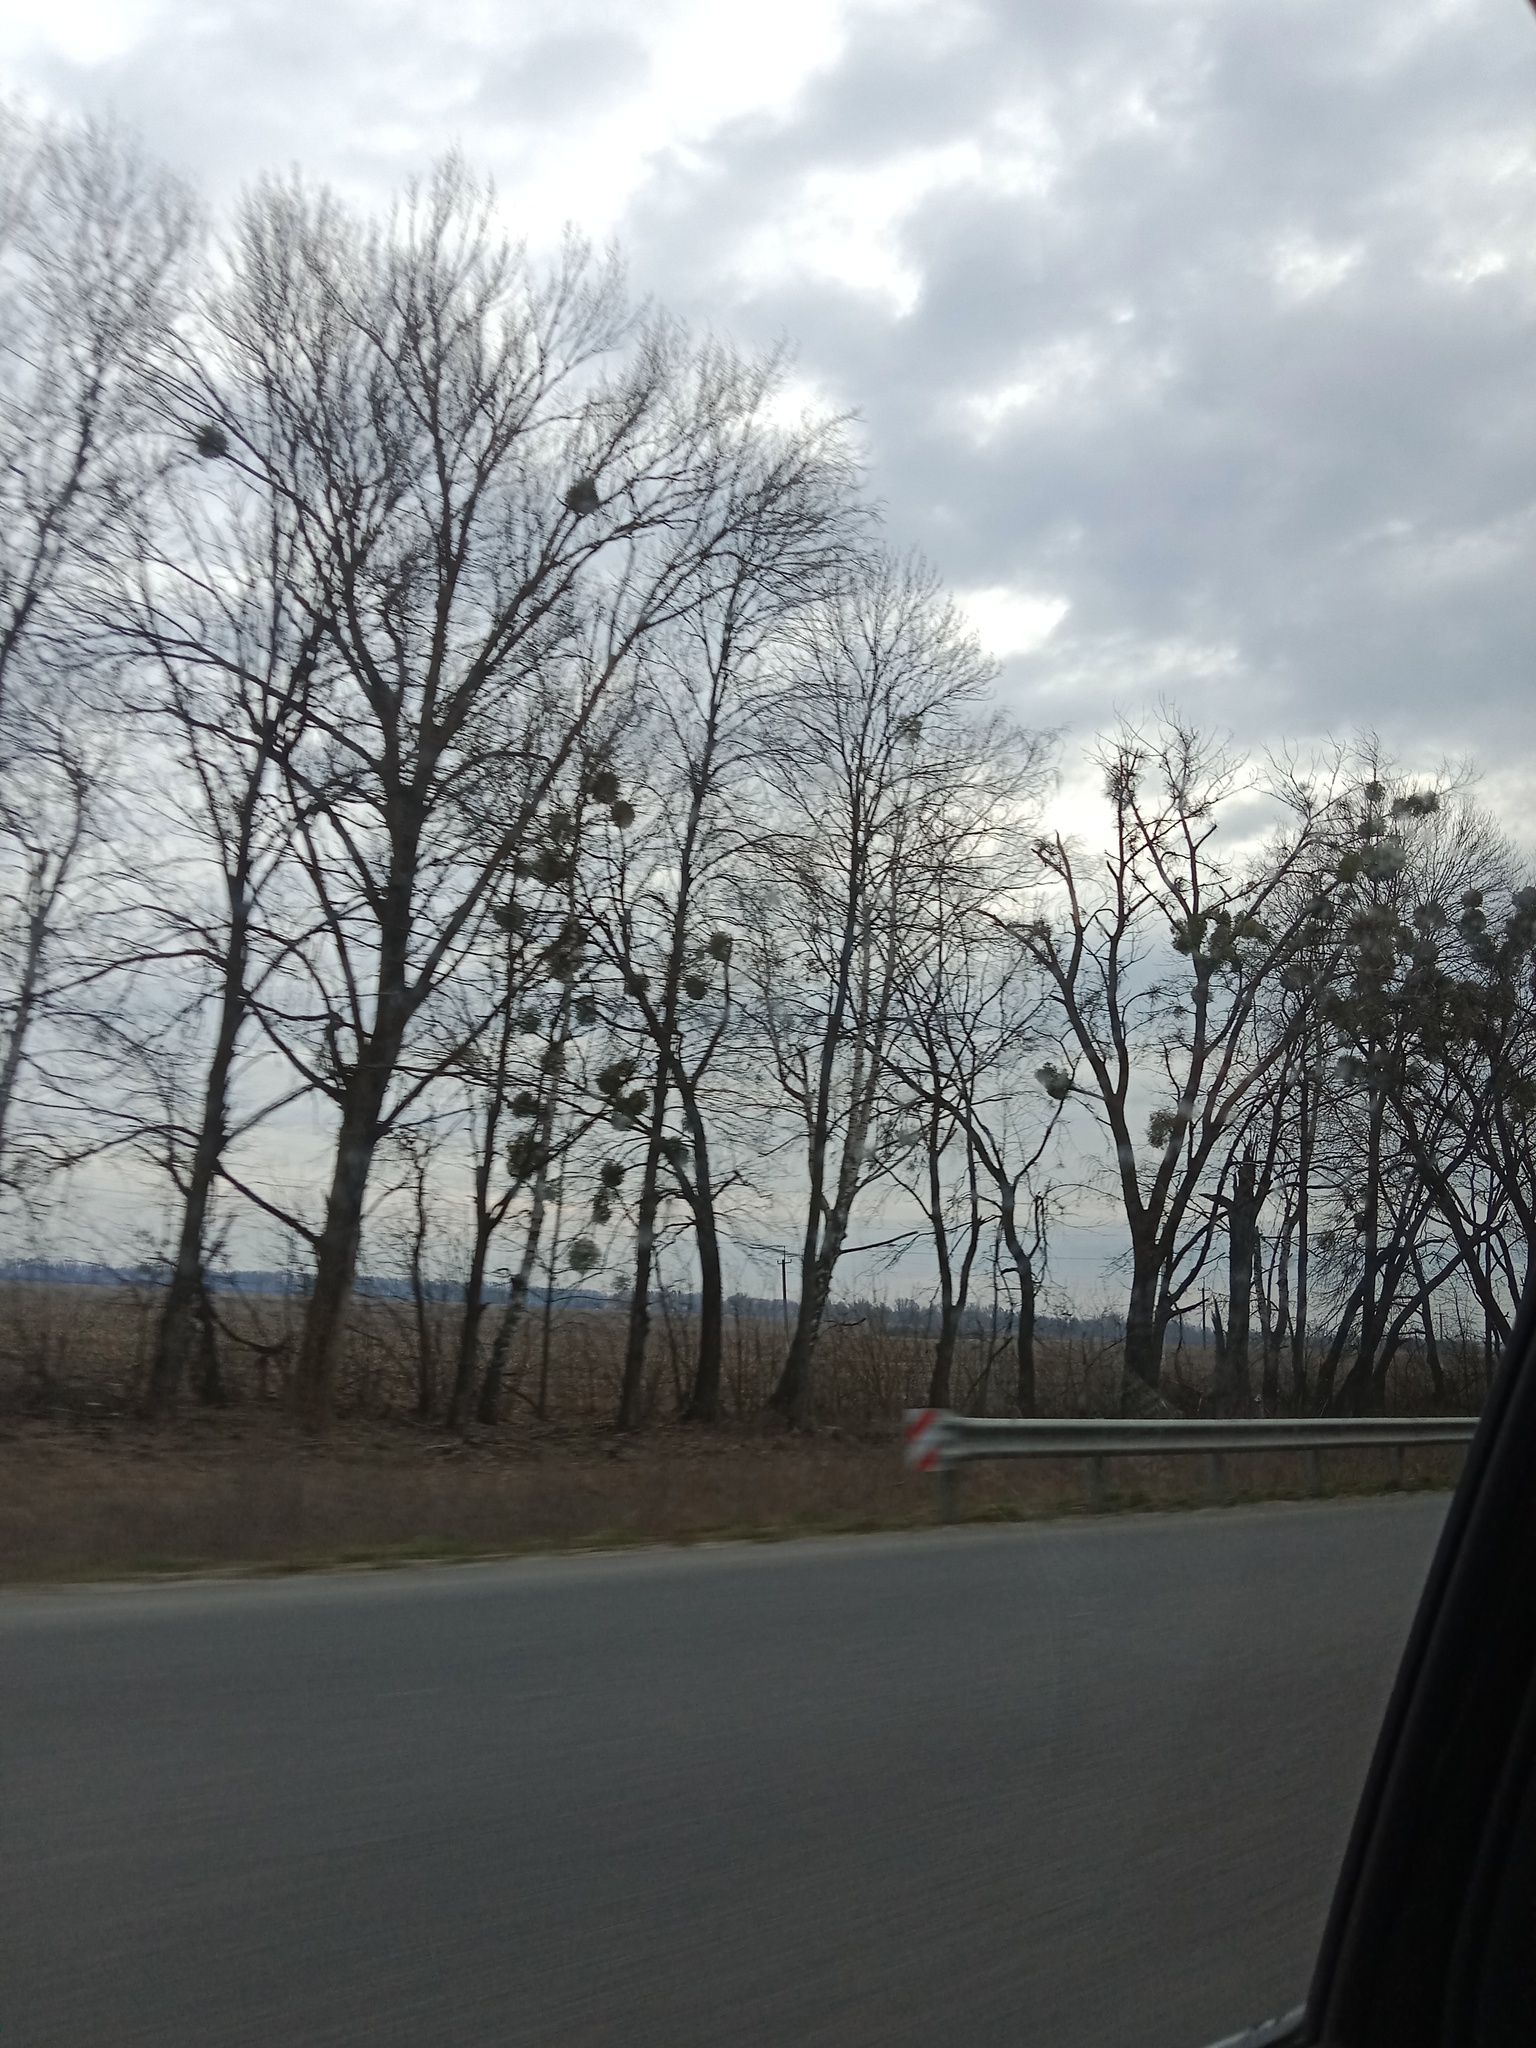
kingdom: Plantae
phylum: Tracheophyta
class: Magnoliopsida
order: Santalales
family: Viscaceae
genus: Viscum
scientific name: Viscum album
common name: Mistletoe
